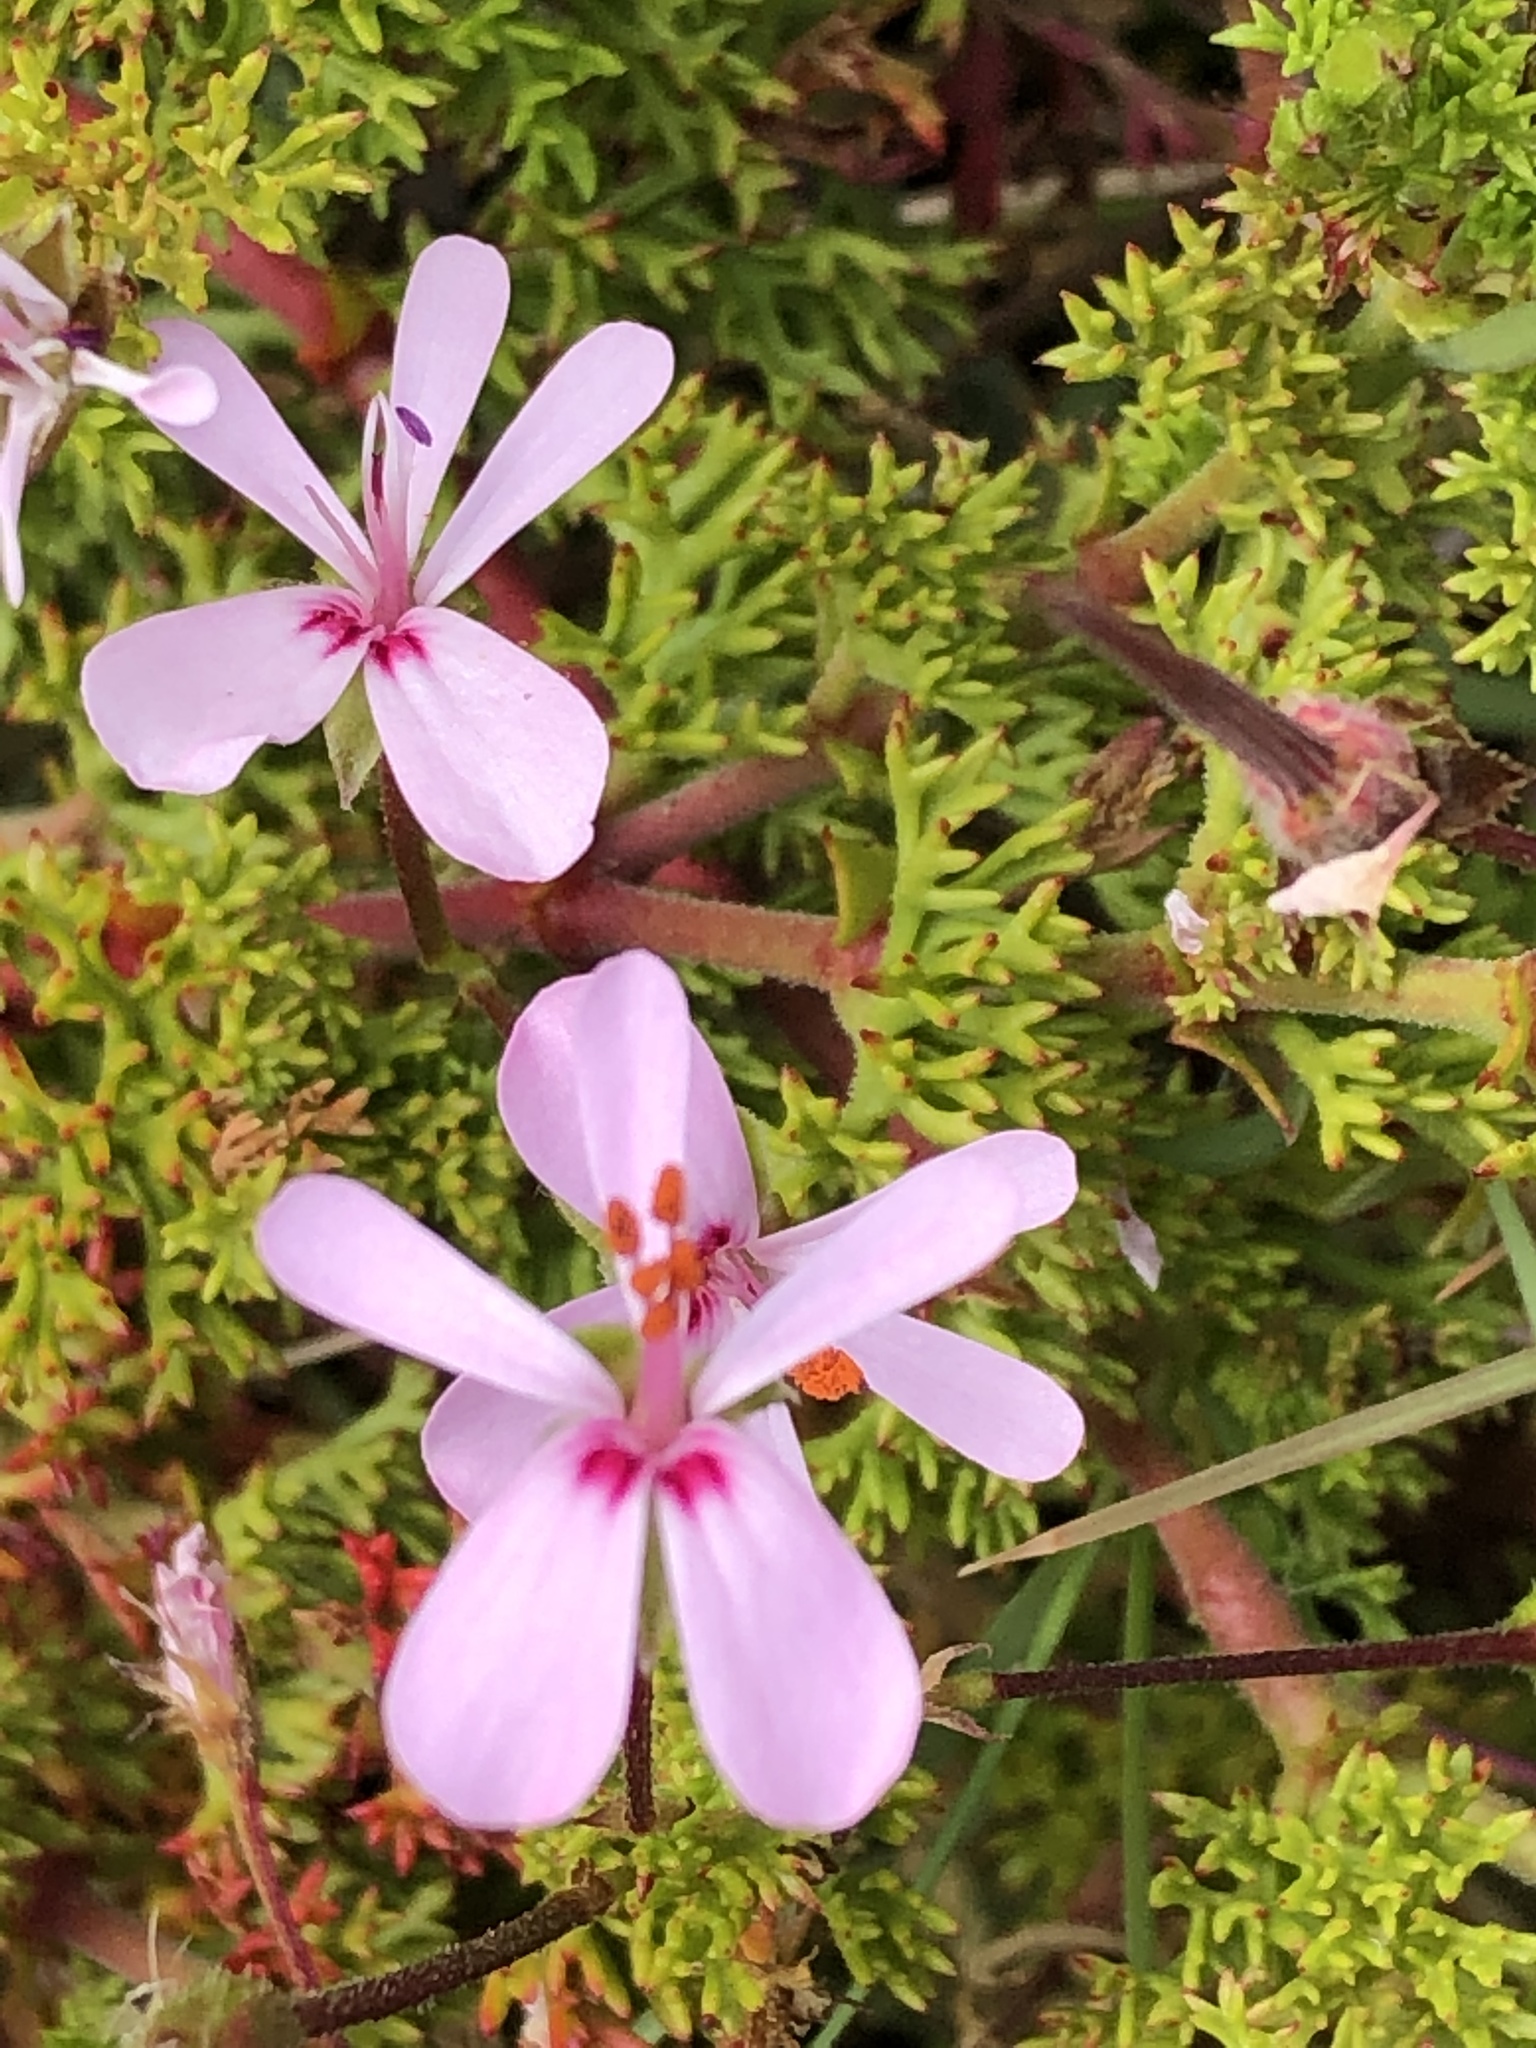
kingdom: Plantae
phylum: Tracheophyta
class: Magnoliopsida
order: Geraniales
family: Geraniaceae
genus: Pelargonium
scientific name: Pelargonium fruticosum
